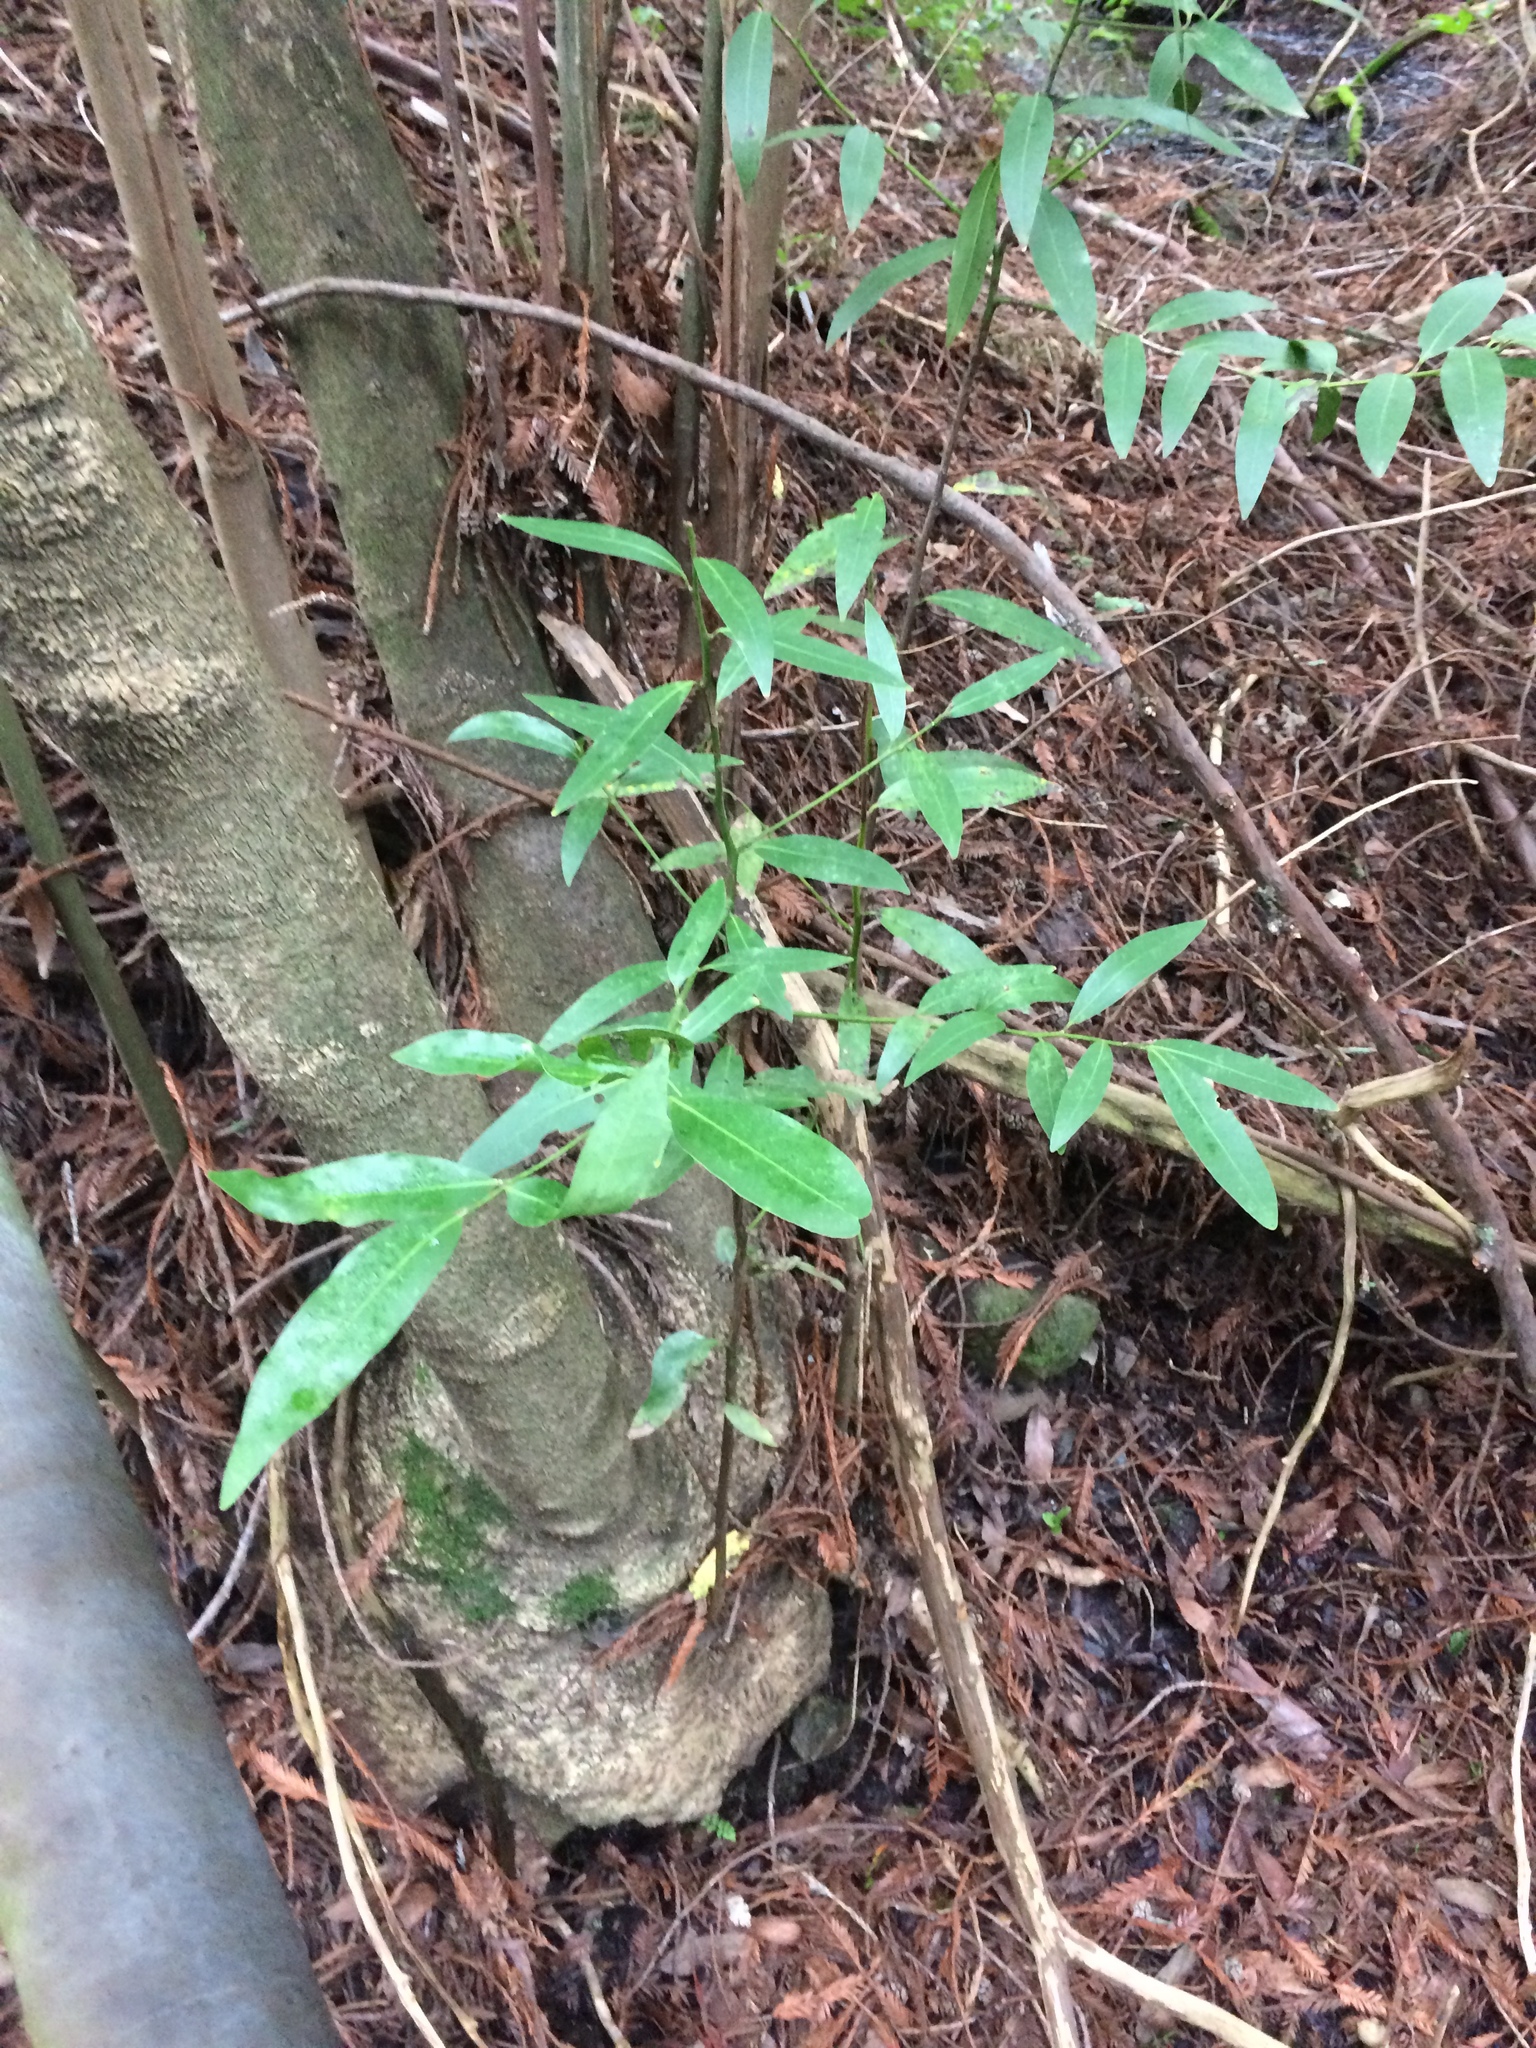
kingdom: Plantae
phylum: Tracheophyta
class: Magnoliopsida
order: Laurales
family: Lauraceae
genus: Umbellularia
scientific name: Umbellularia californica
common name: California bay
